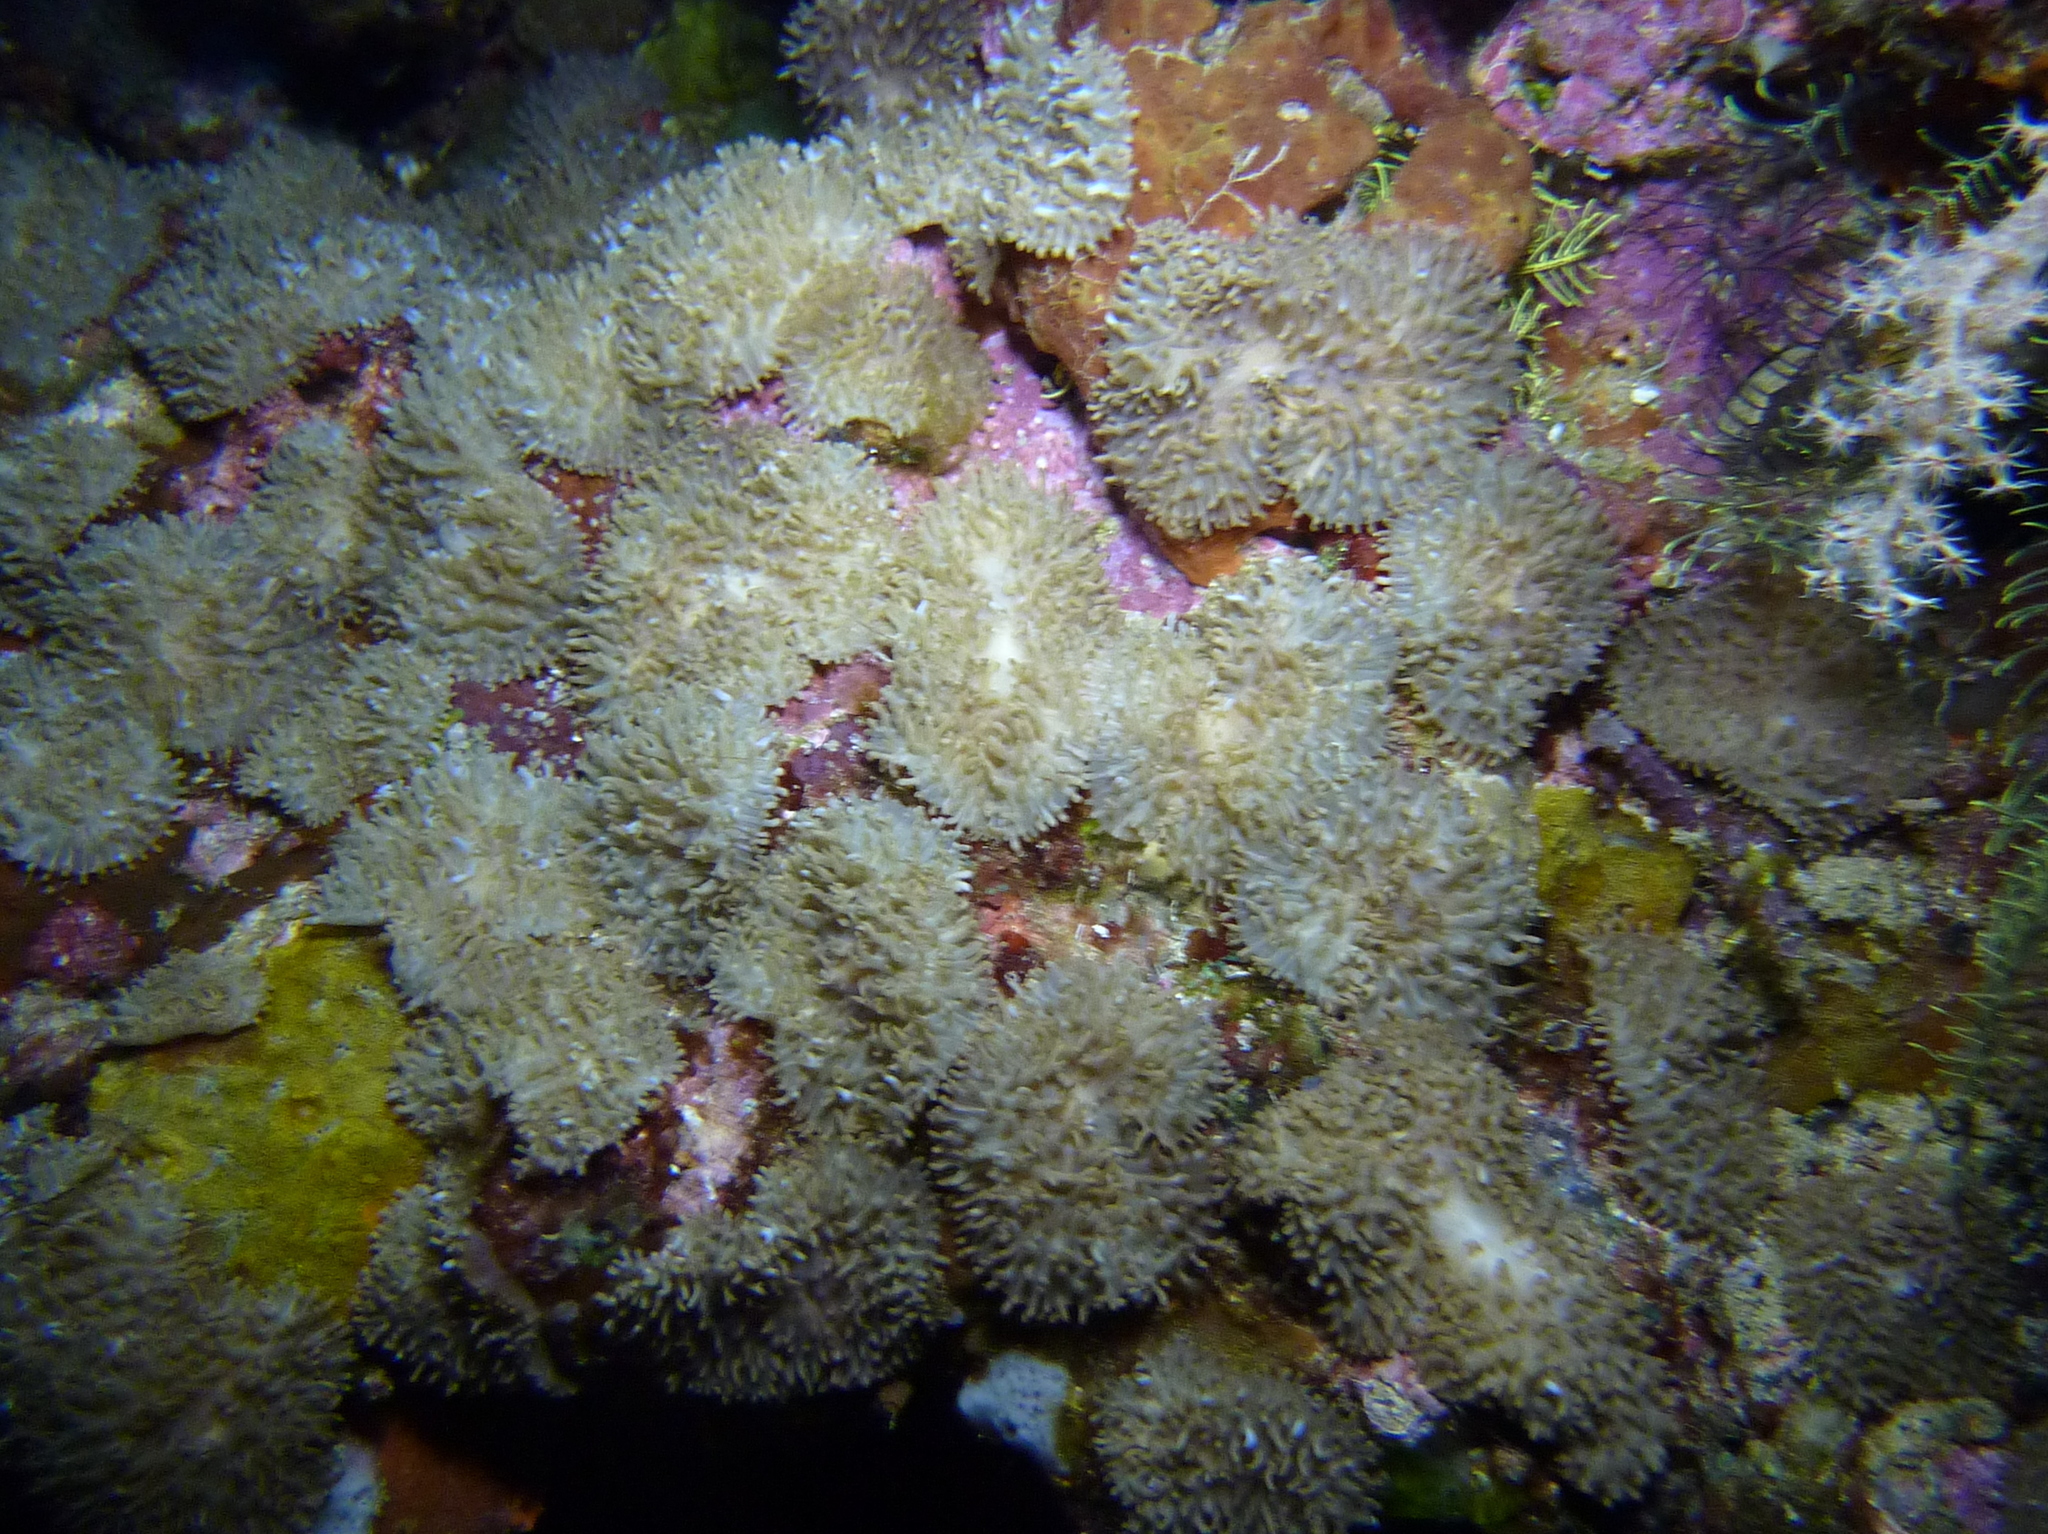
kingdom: Animalia
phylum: Cnidaria
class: Anthozoa
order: Corallimorpharia
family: Discosomidae
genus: Rhodactis
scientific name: Rhodactis rhodostoma
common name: Red-mouth mushroom anemone
